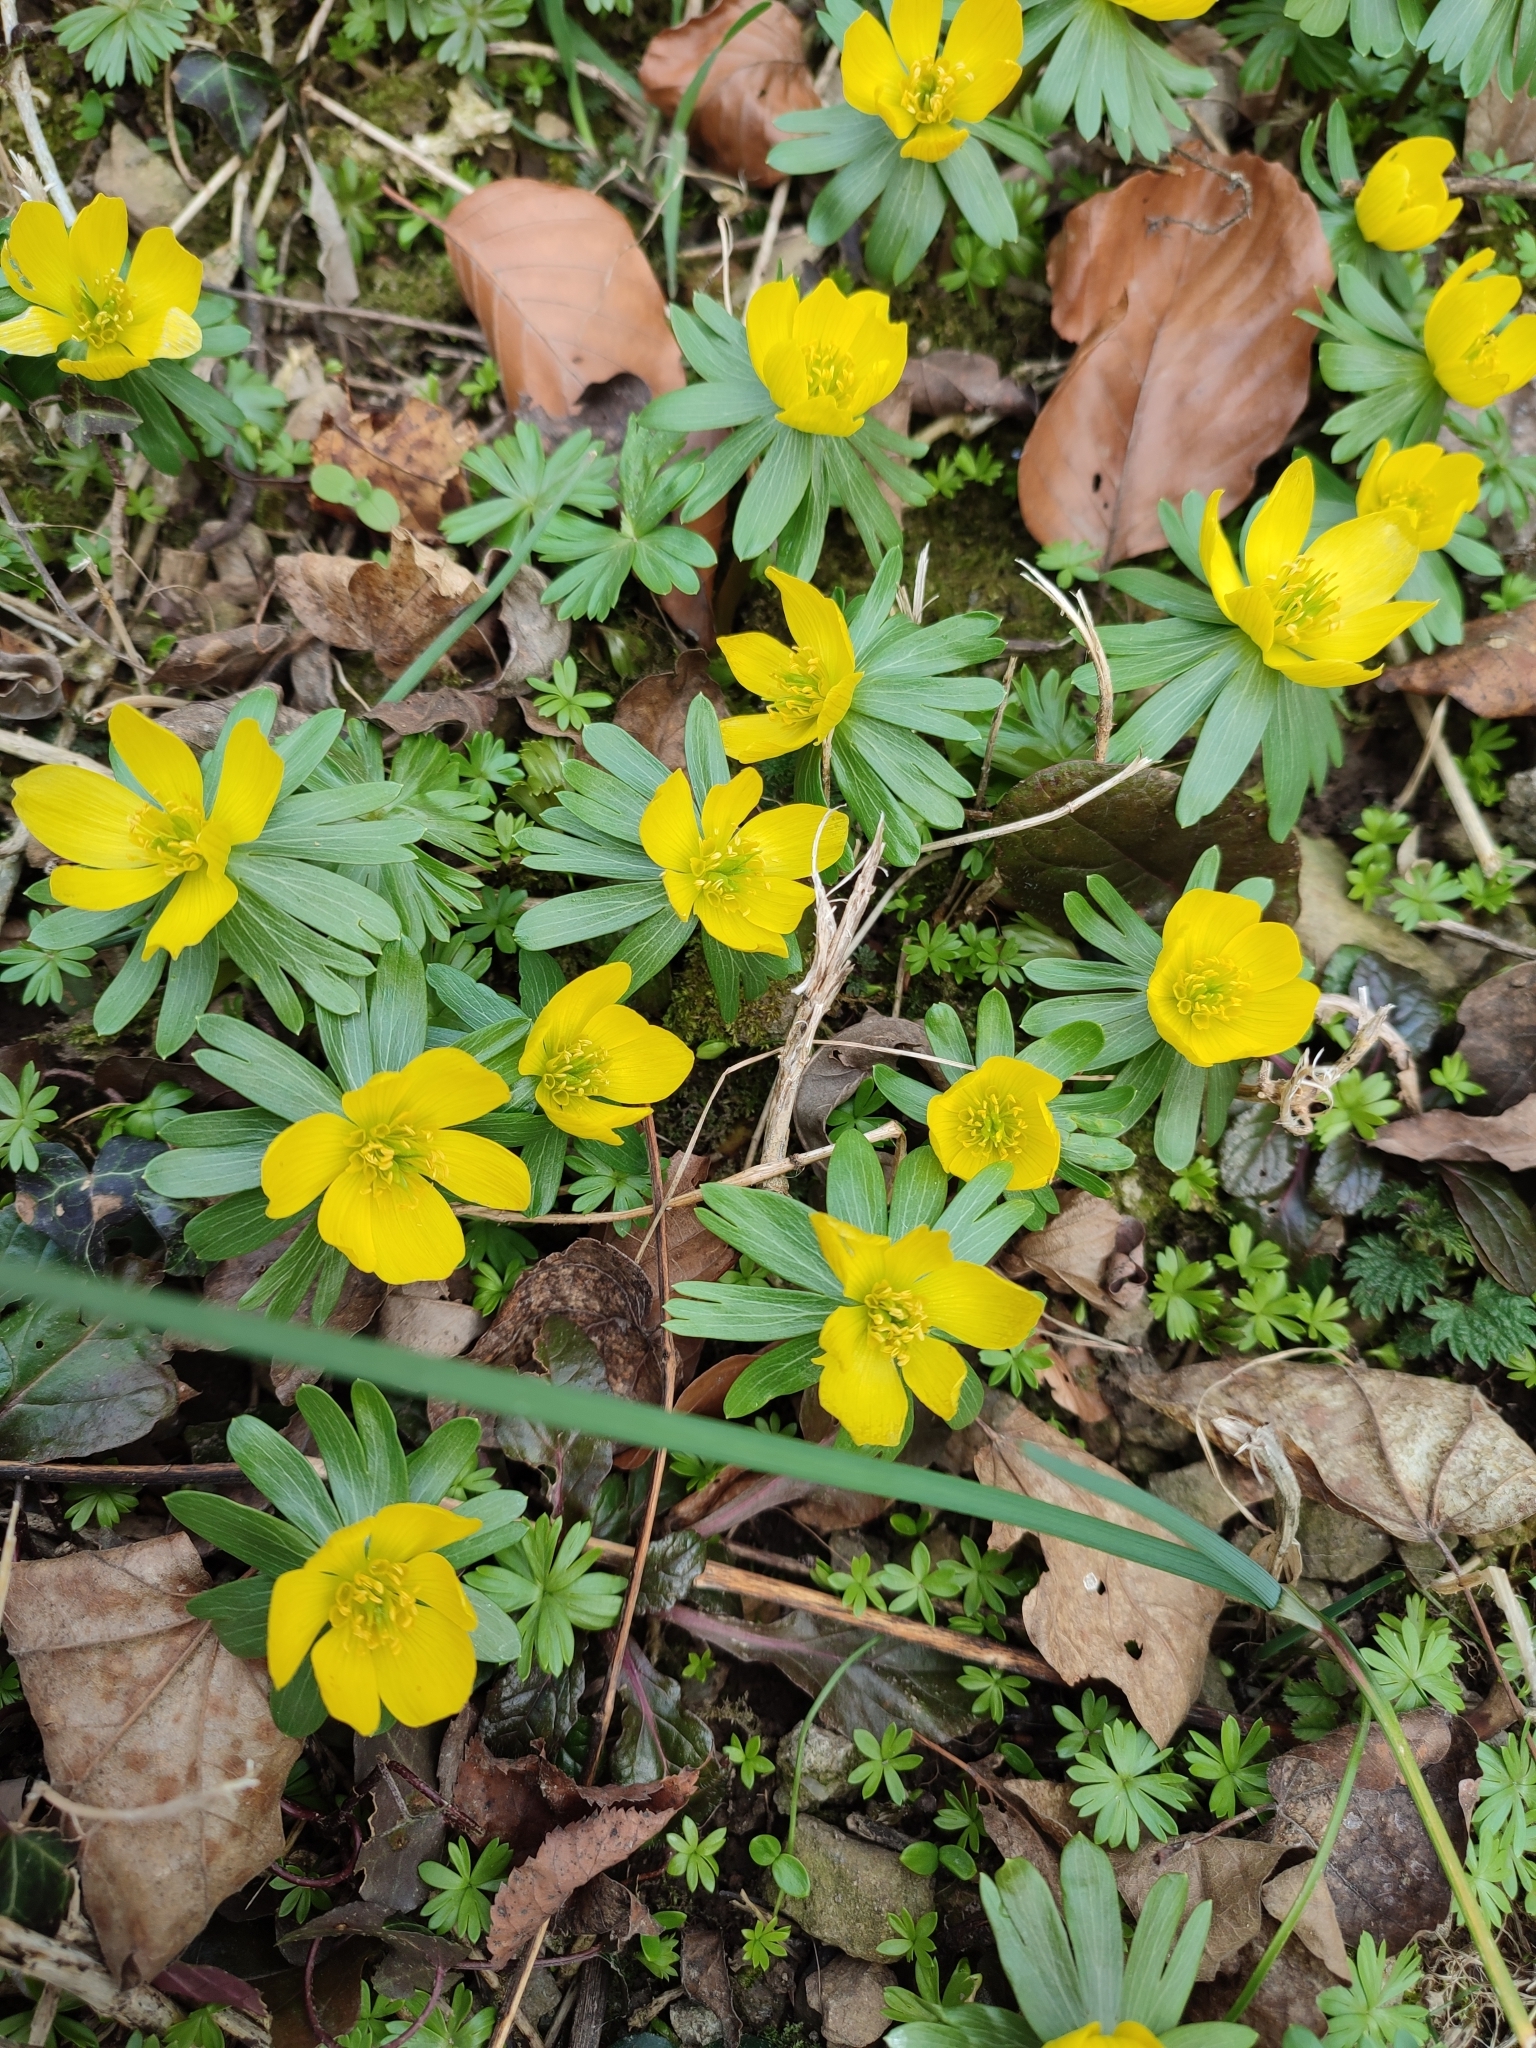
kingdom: Plantae
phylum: Tracheophyta
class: Magnoliopsida
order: Ranunculales
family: Ranunculaceae
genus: Eranthis
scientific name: Eranthis hyemalis
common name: Winter aconite
